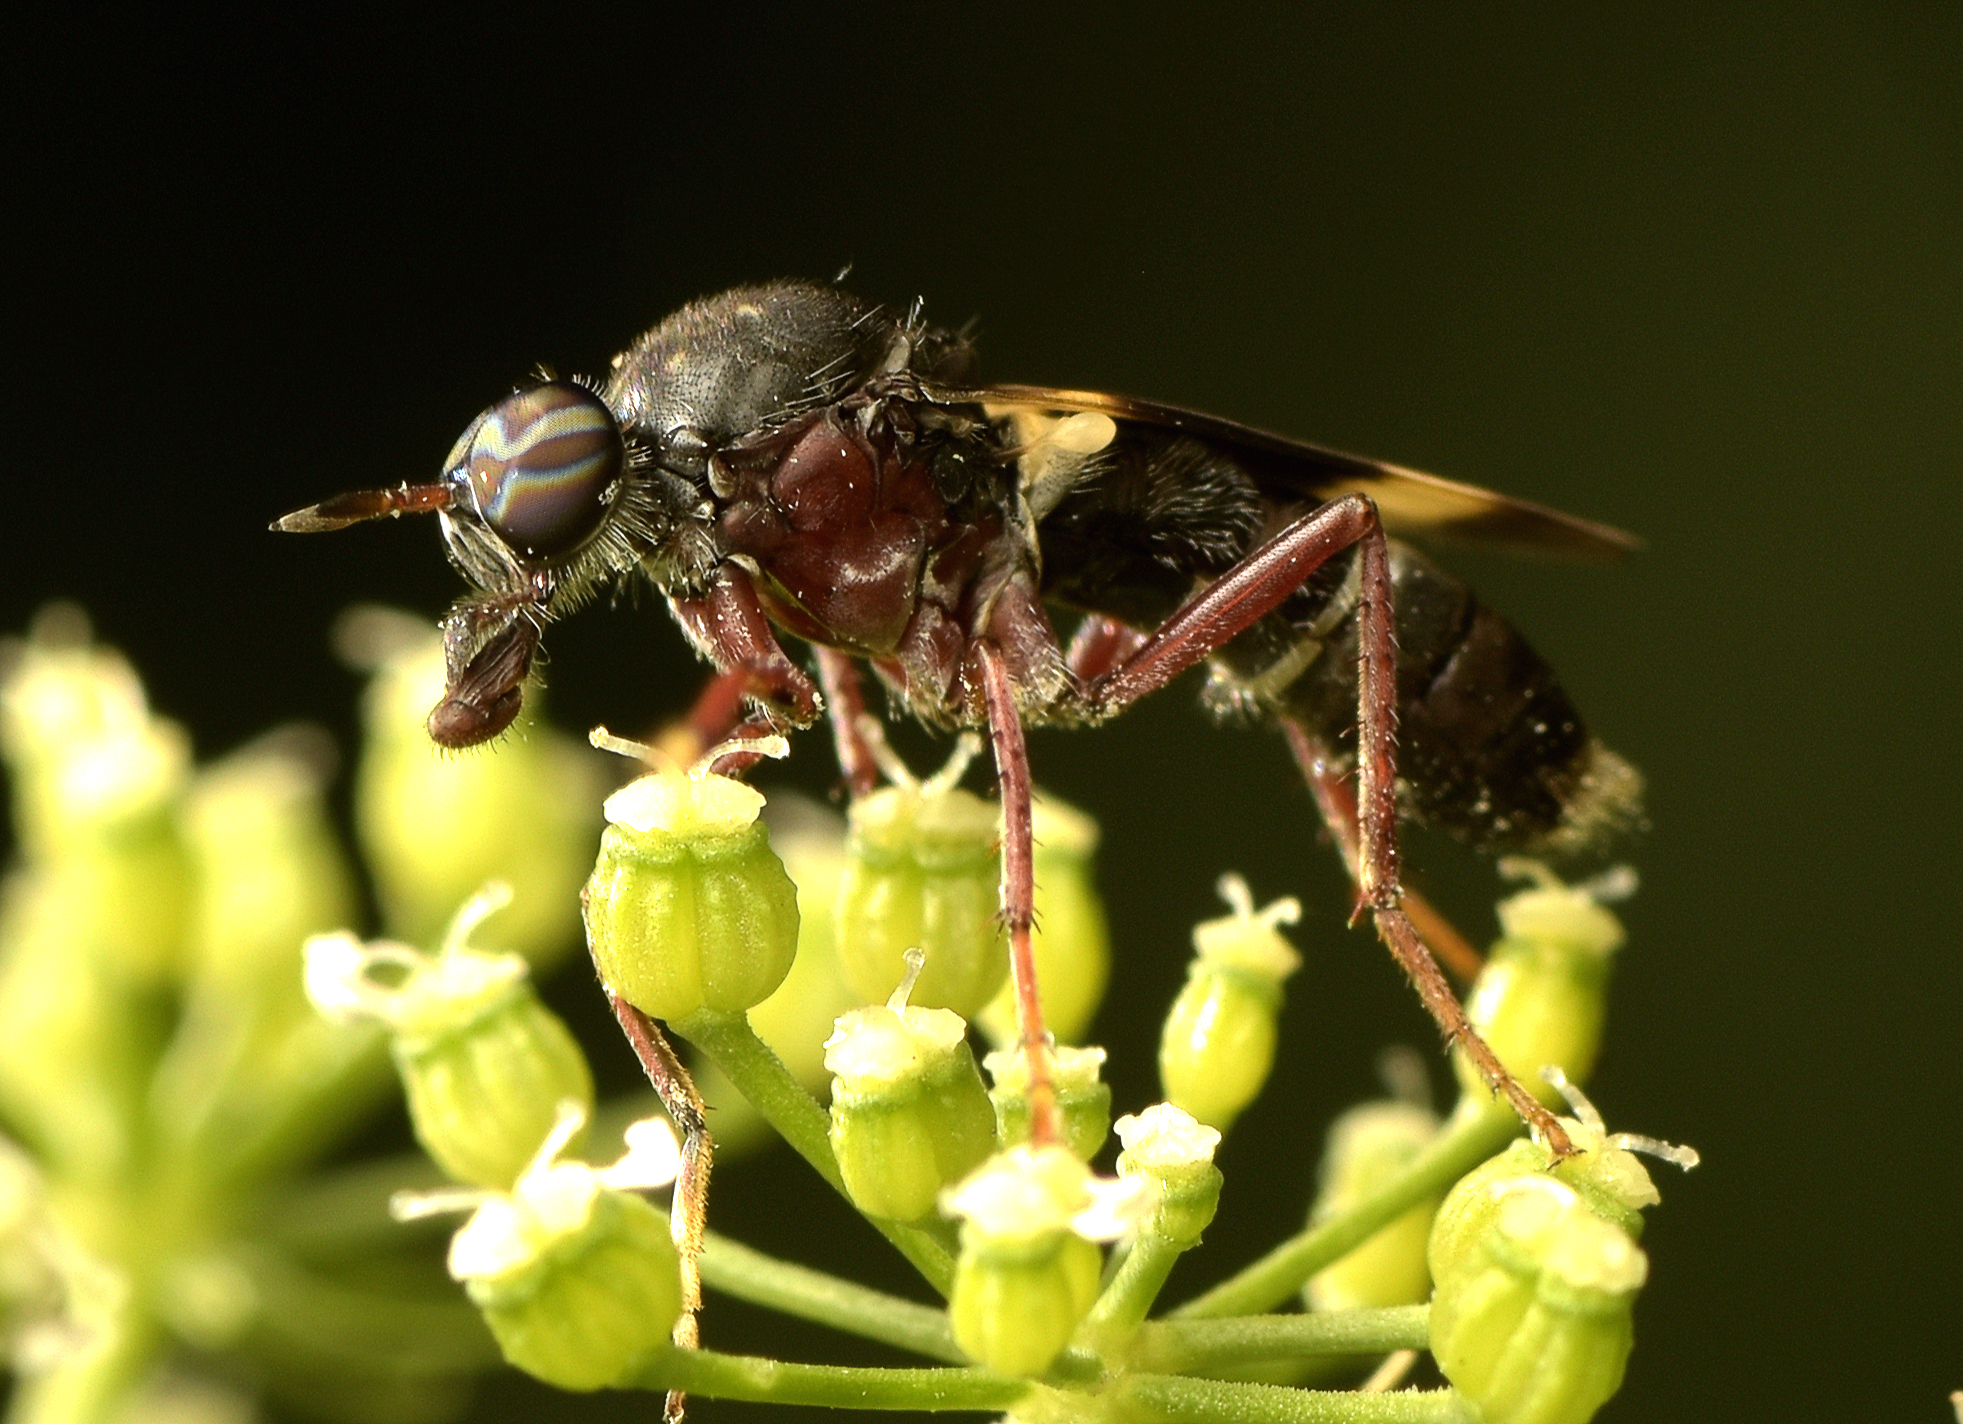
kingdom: Animalia
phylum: Arthropoda
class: Insecta
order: Diptera
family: Therevidae
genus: Pipinnipons
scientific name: Pipinnipons fascipennis
